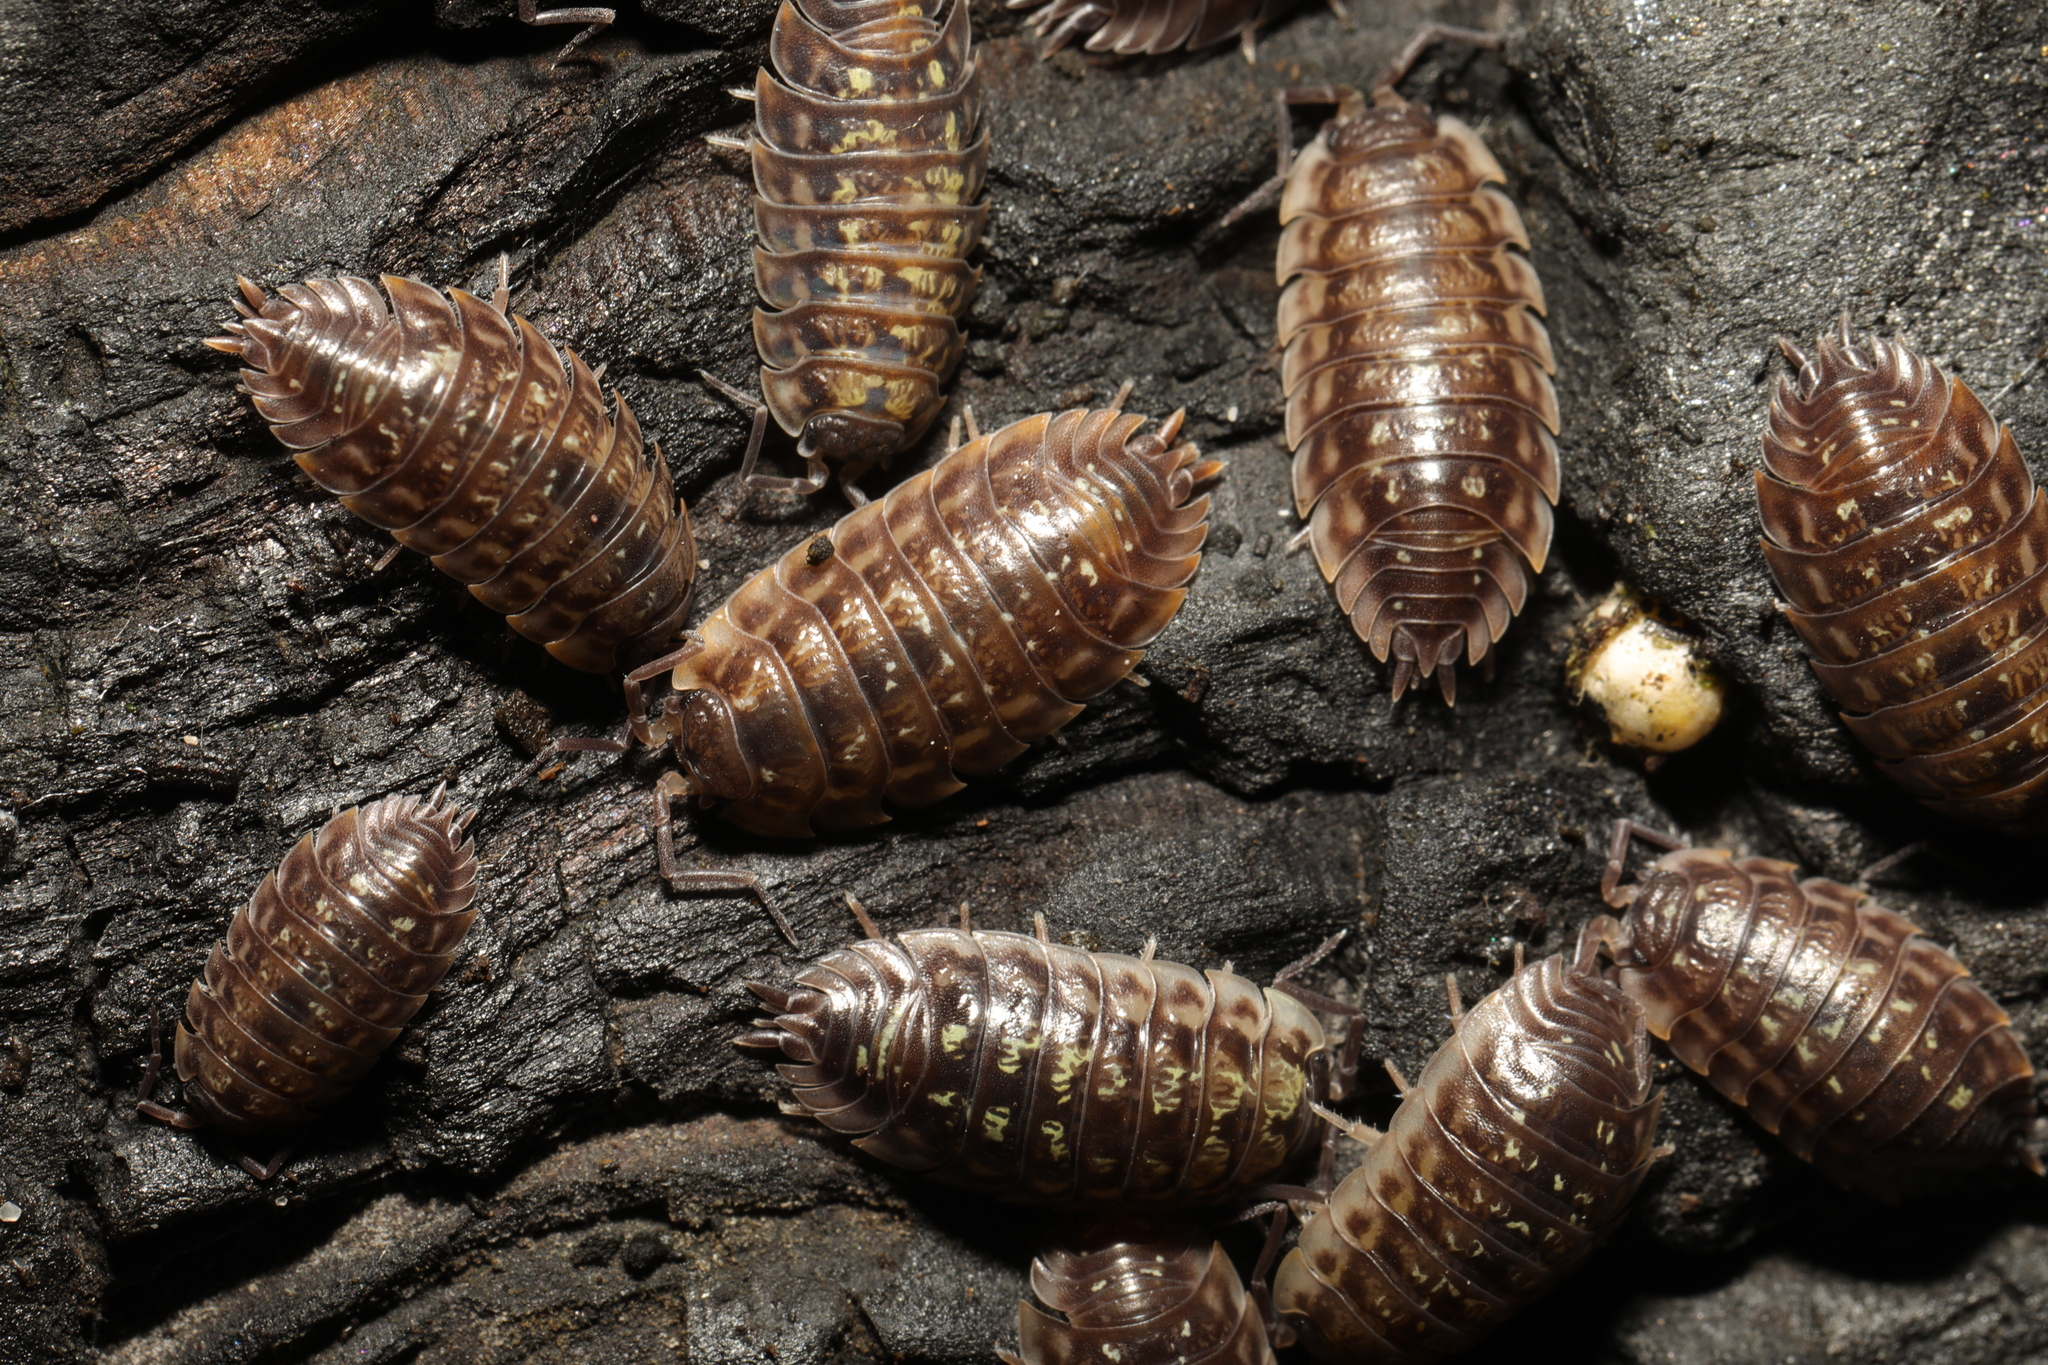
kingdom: Animalia
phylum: Arthropoda
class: Malacostraca
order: Isopoda
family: Oniscidae
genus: Oniscus
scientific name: Oniscus asellus
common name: Common shiny woodlouse
